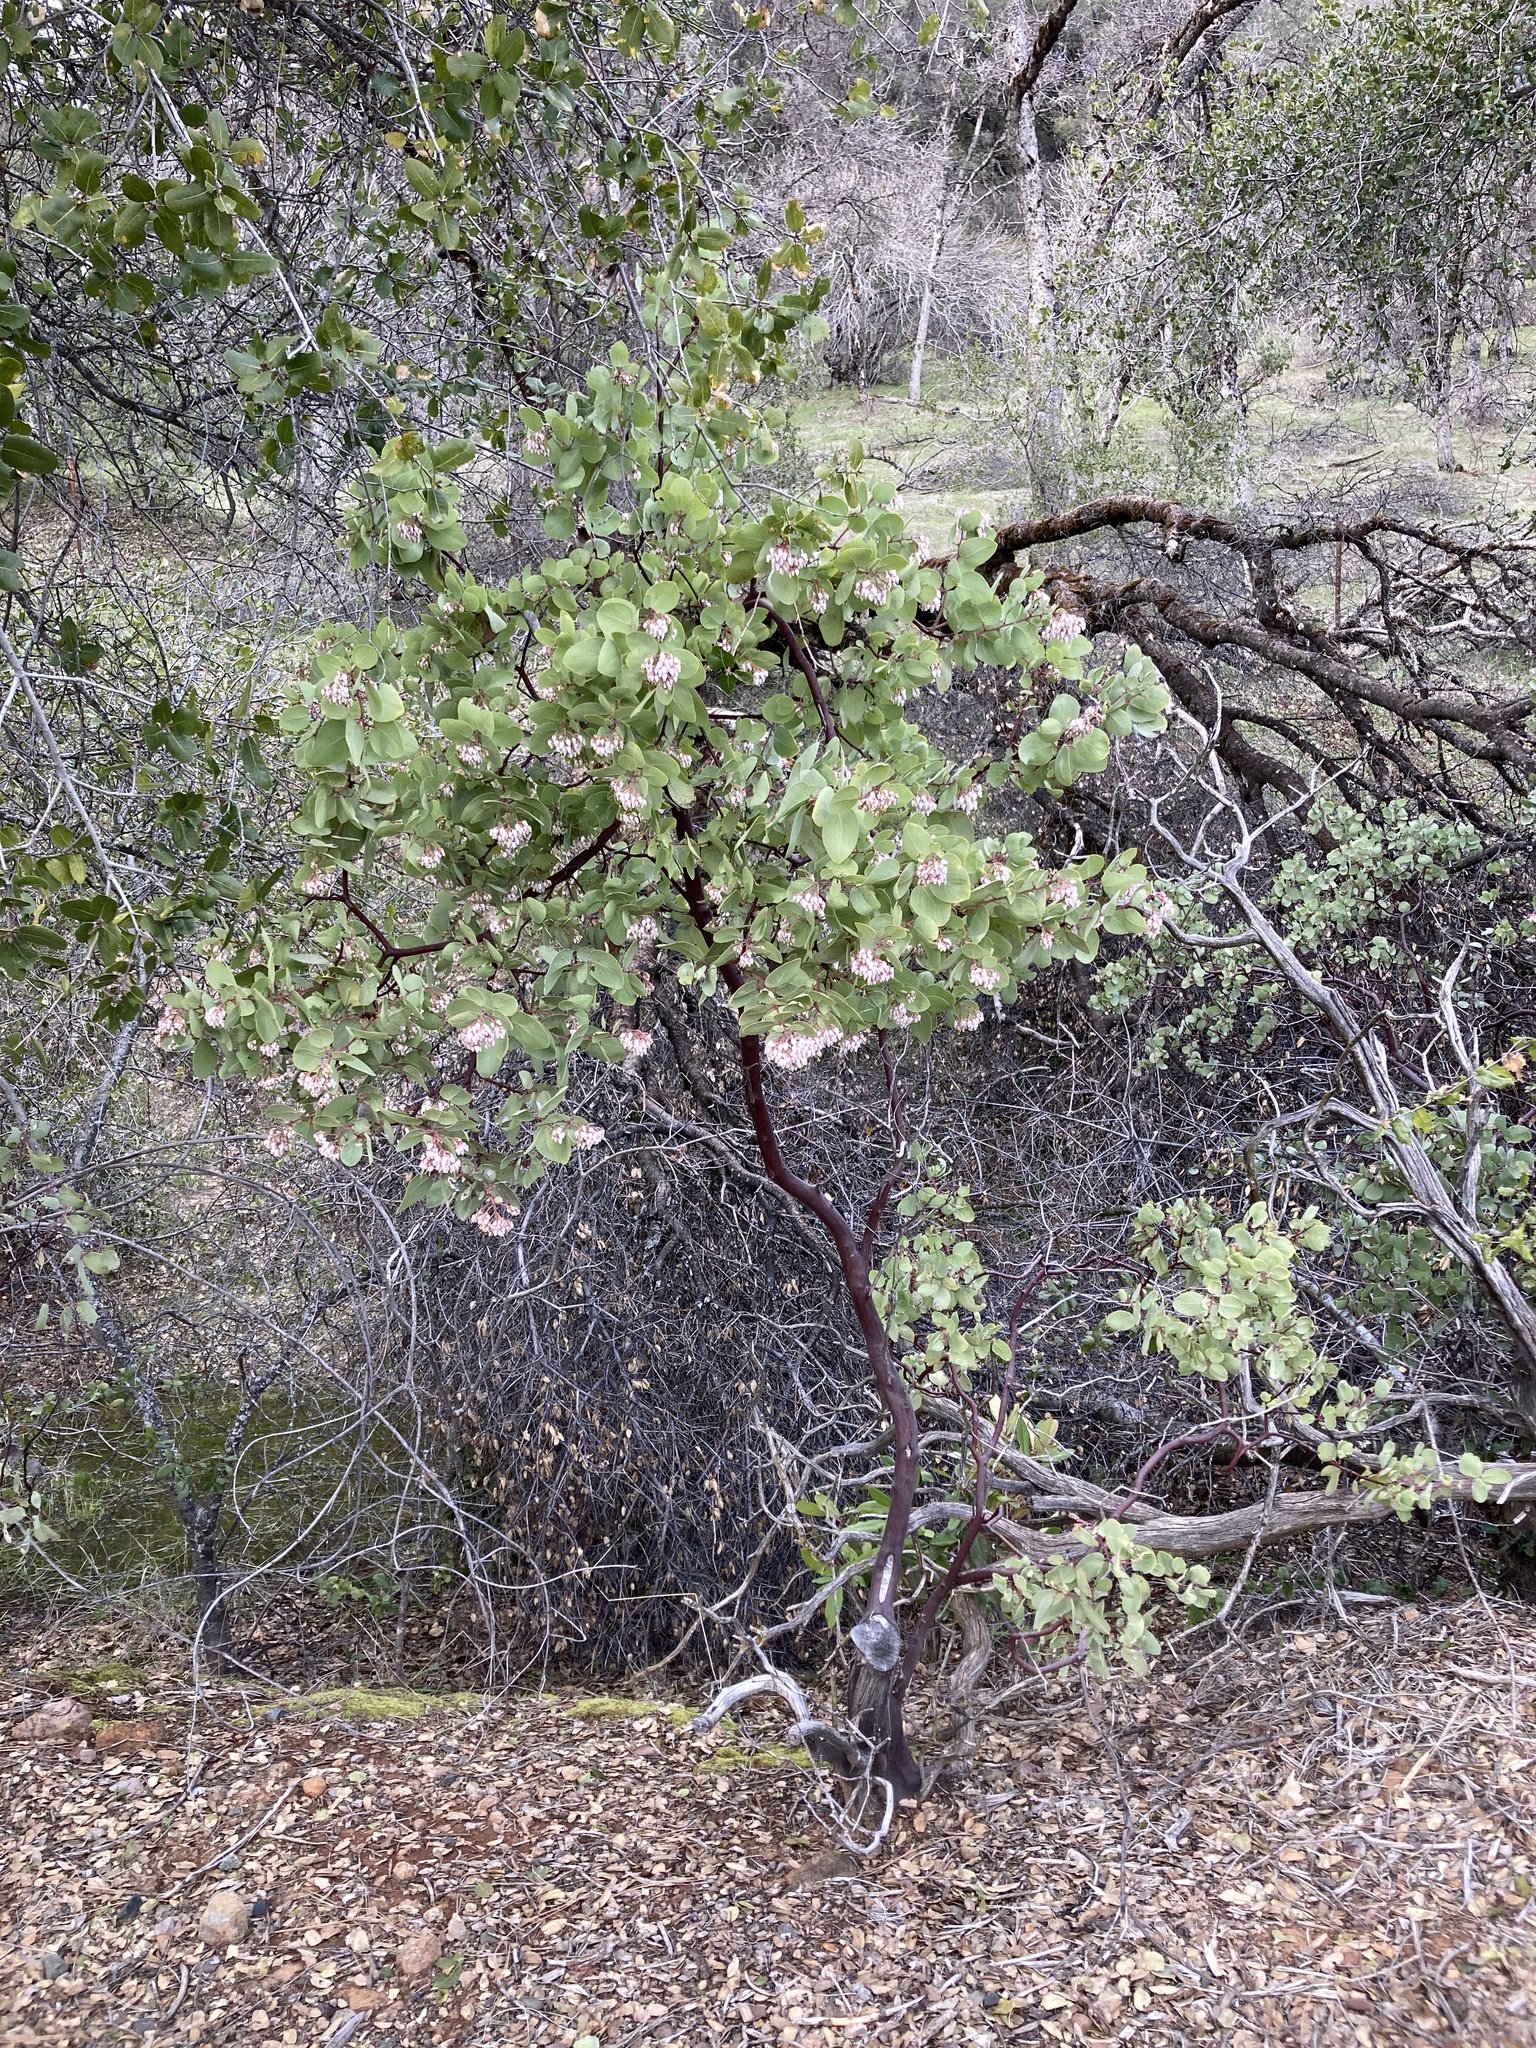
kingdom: Plantae
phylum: Tracheophyta
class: Magnoliopsida
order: Ericales
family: Ericaceae
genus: Arctostaphylos
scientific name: Arctostaphylos viscida
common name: White-leaf manzanita
